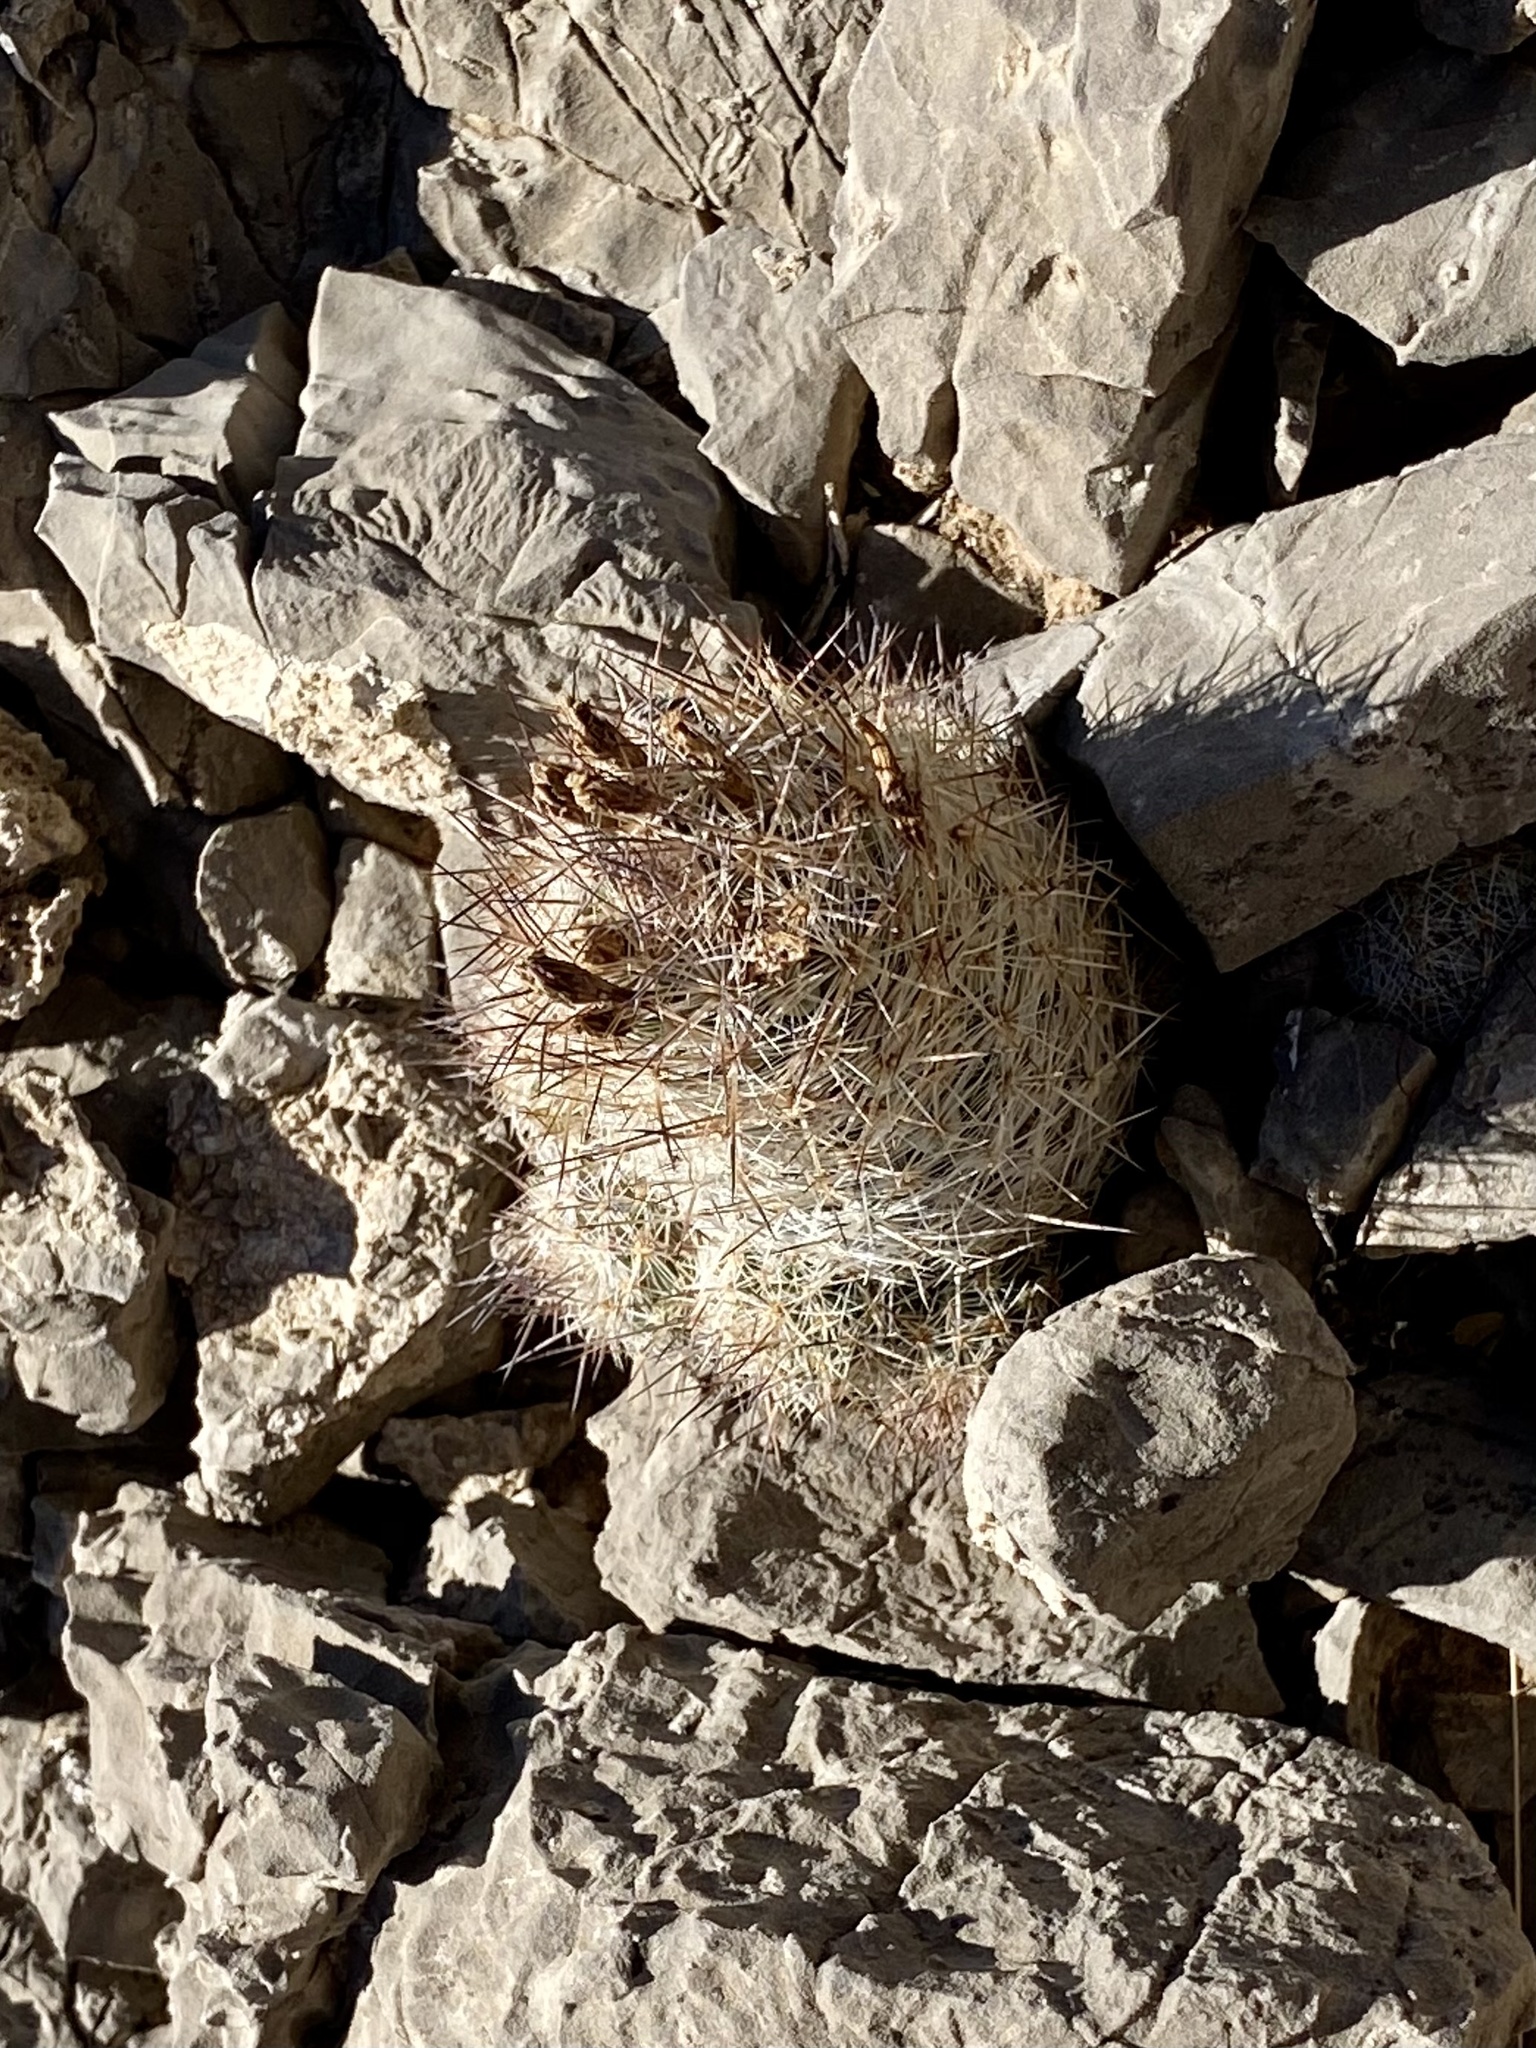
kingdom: Plantae
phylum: Tracheophyta
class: Magnoliopsida
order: Caryophyllales
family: Cactaceae
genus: Pelecyphora
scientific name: Pelecyphora tuberculosa
